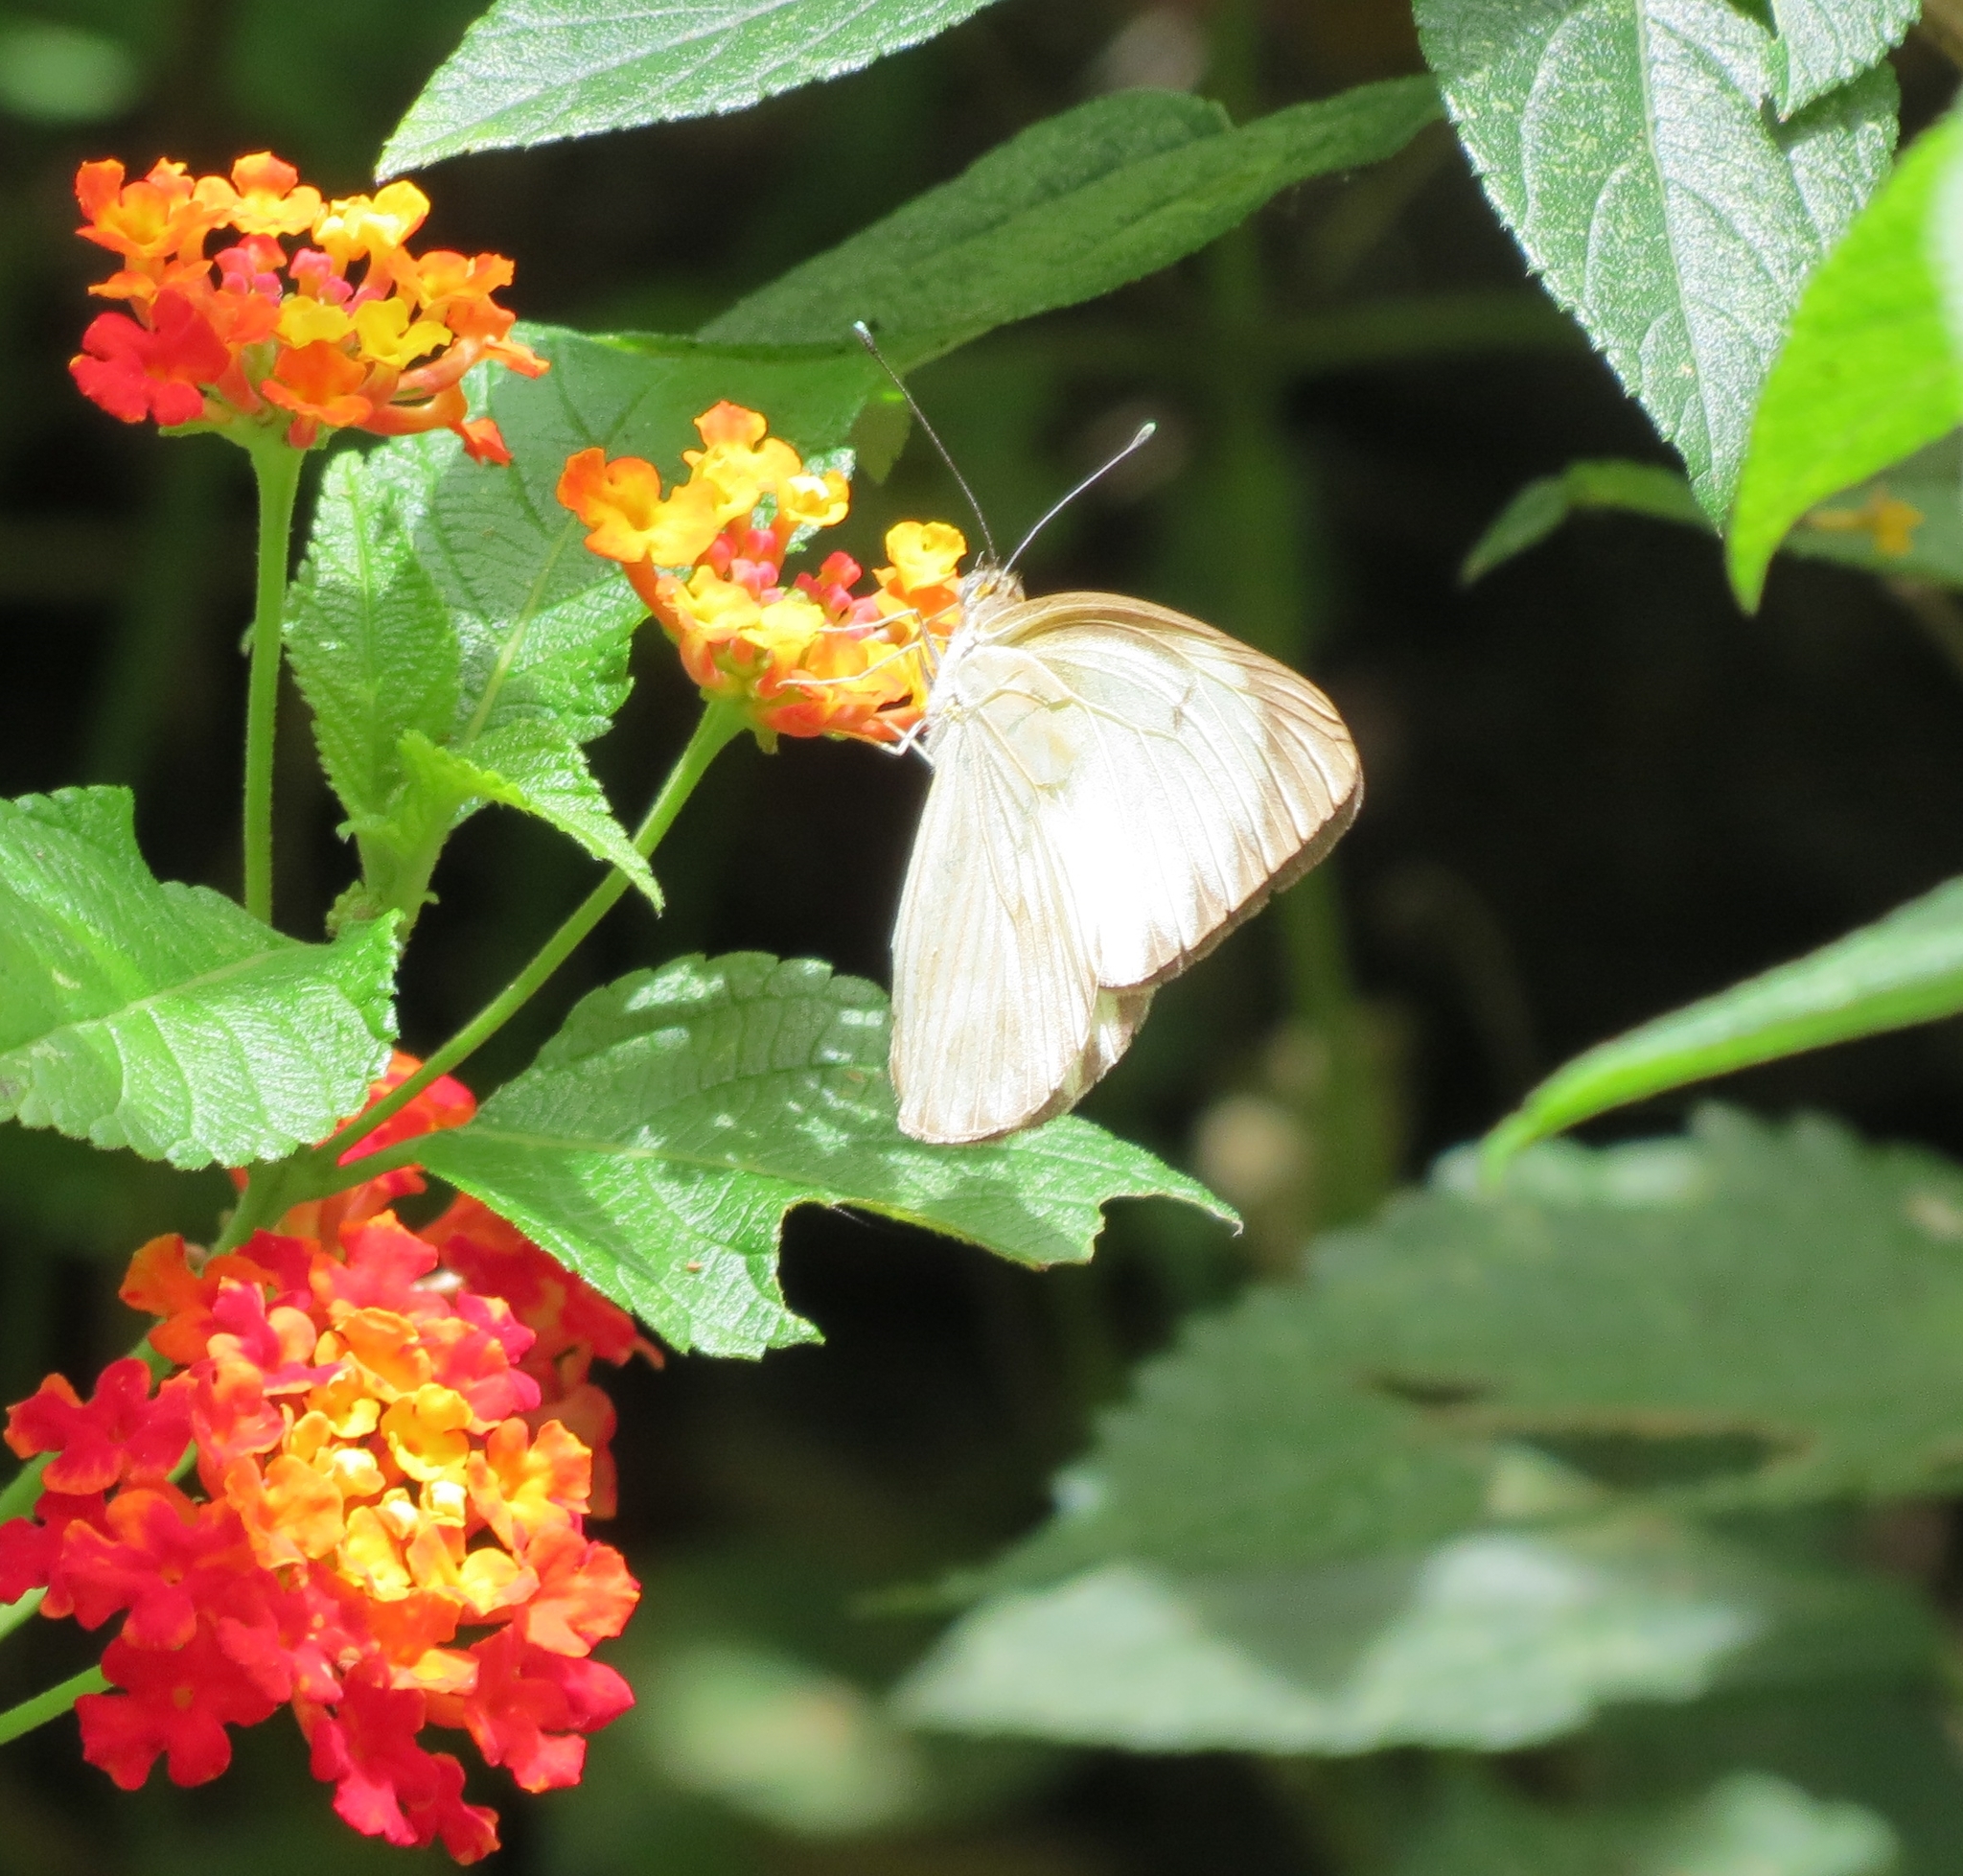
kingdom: Animalia
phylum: Arthropoda
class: Insecta
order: Lepidoptera
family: Pieridae
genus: Ascia
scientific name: Ascia monuste
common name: Great southern white
